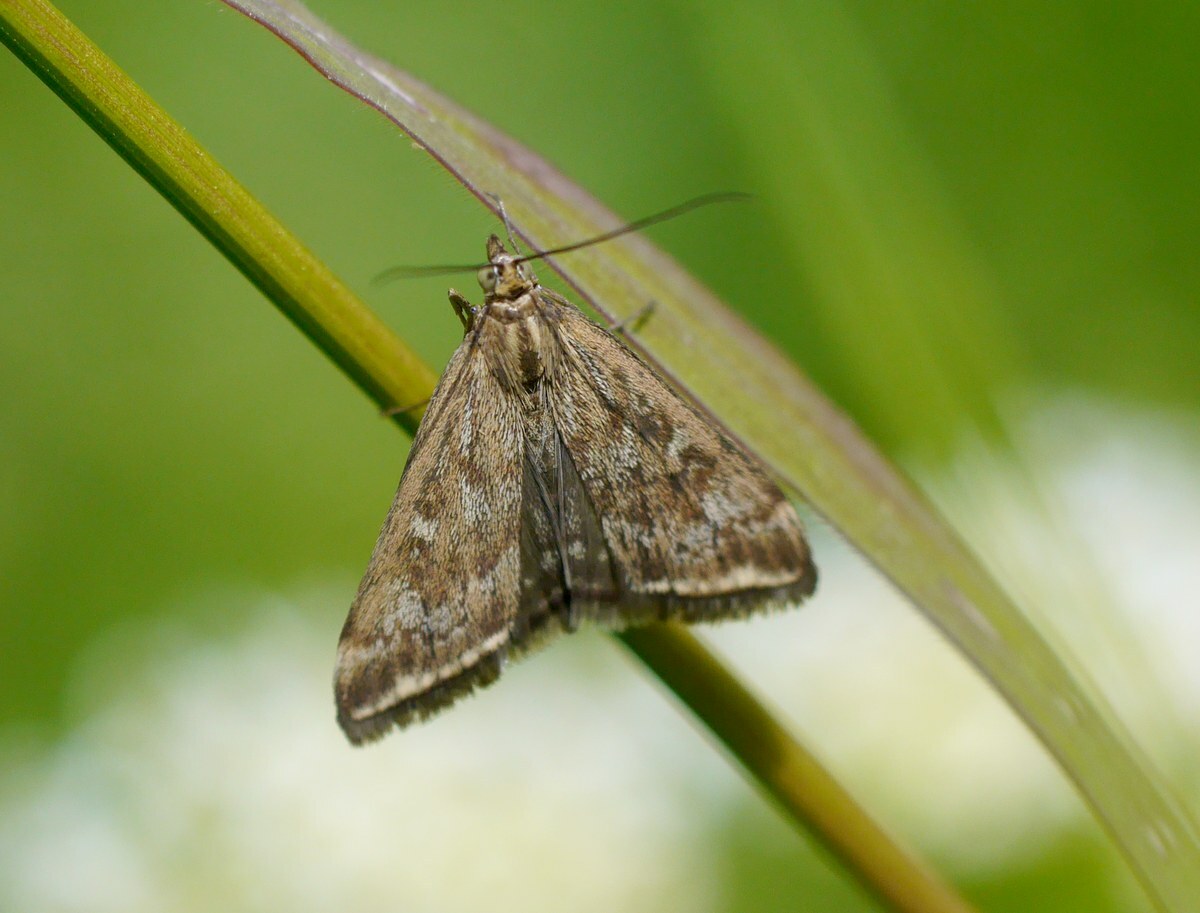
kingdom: Animalia
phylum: Arthropoda
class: Insecta
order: Lepidoptera
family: Crambidae
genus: Loxostege
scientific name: Loxostege sticticalis
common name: Crambid moth
